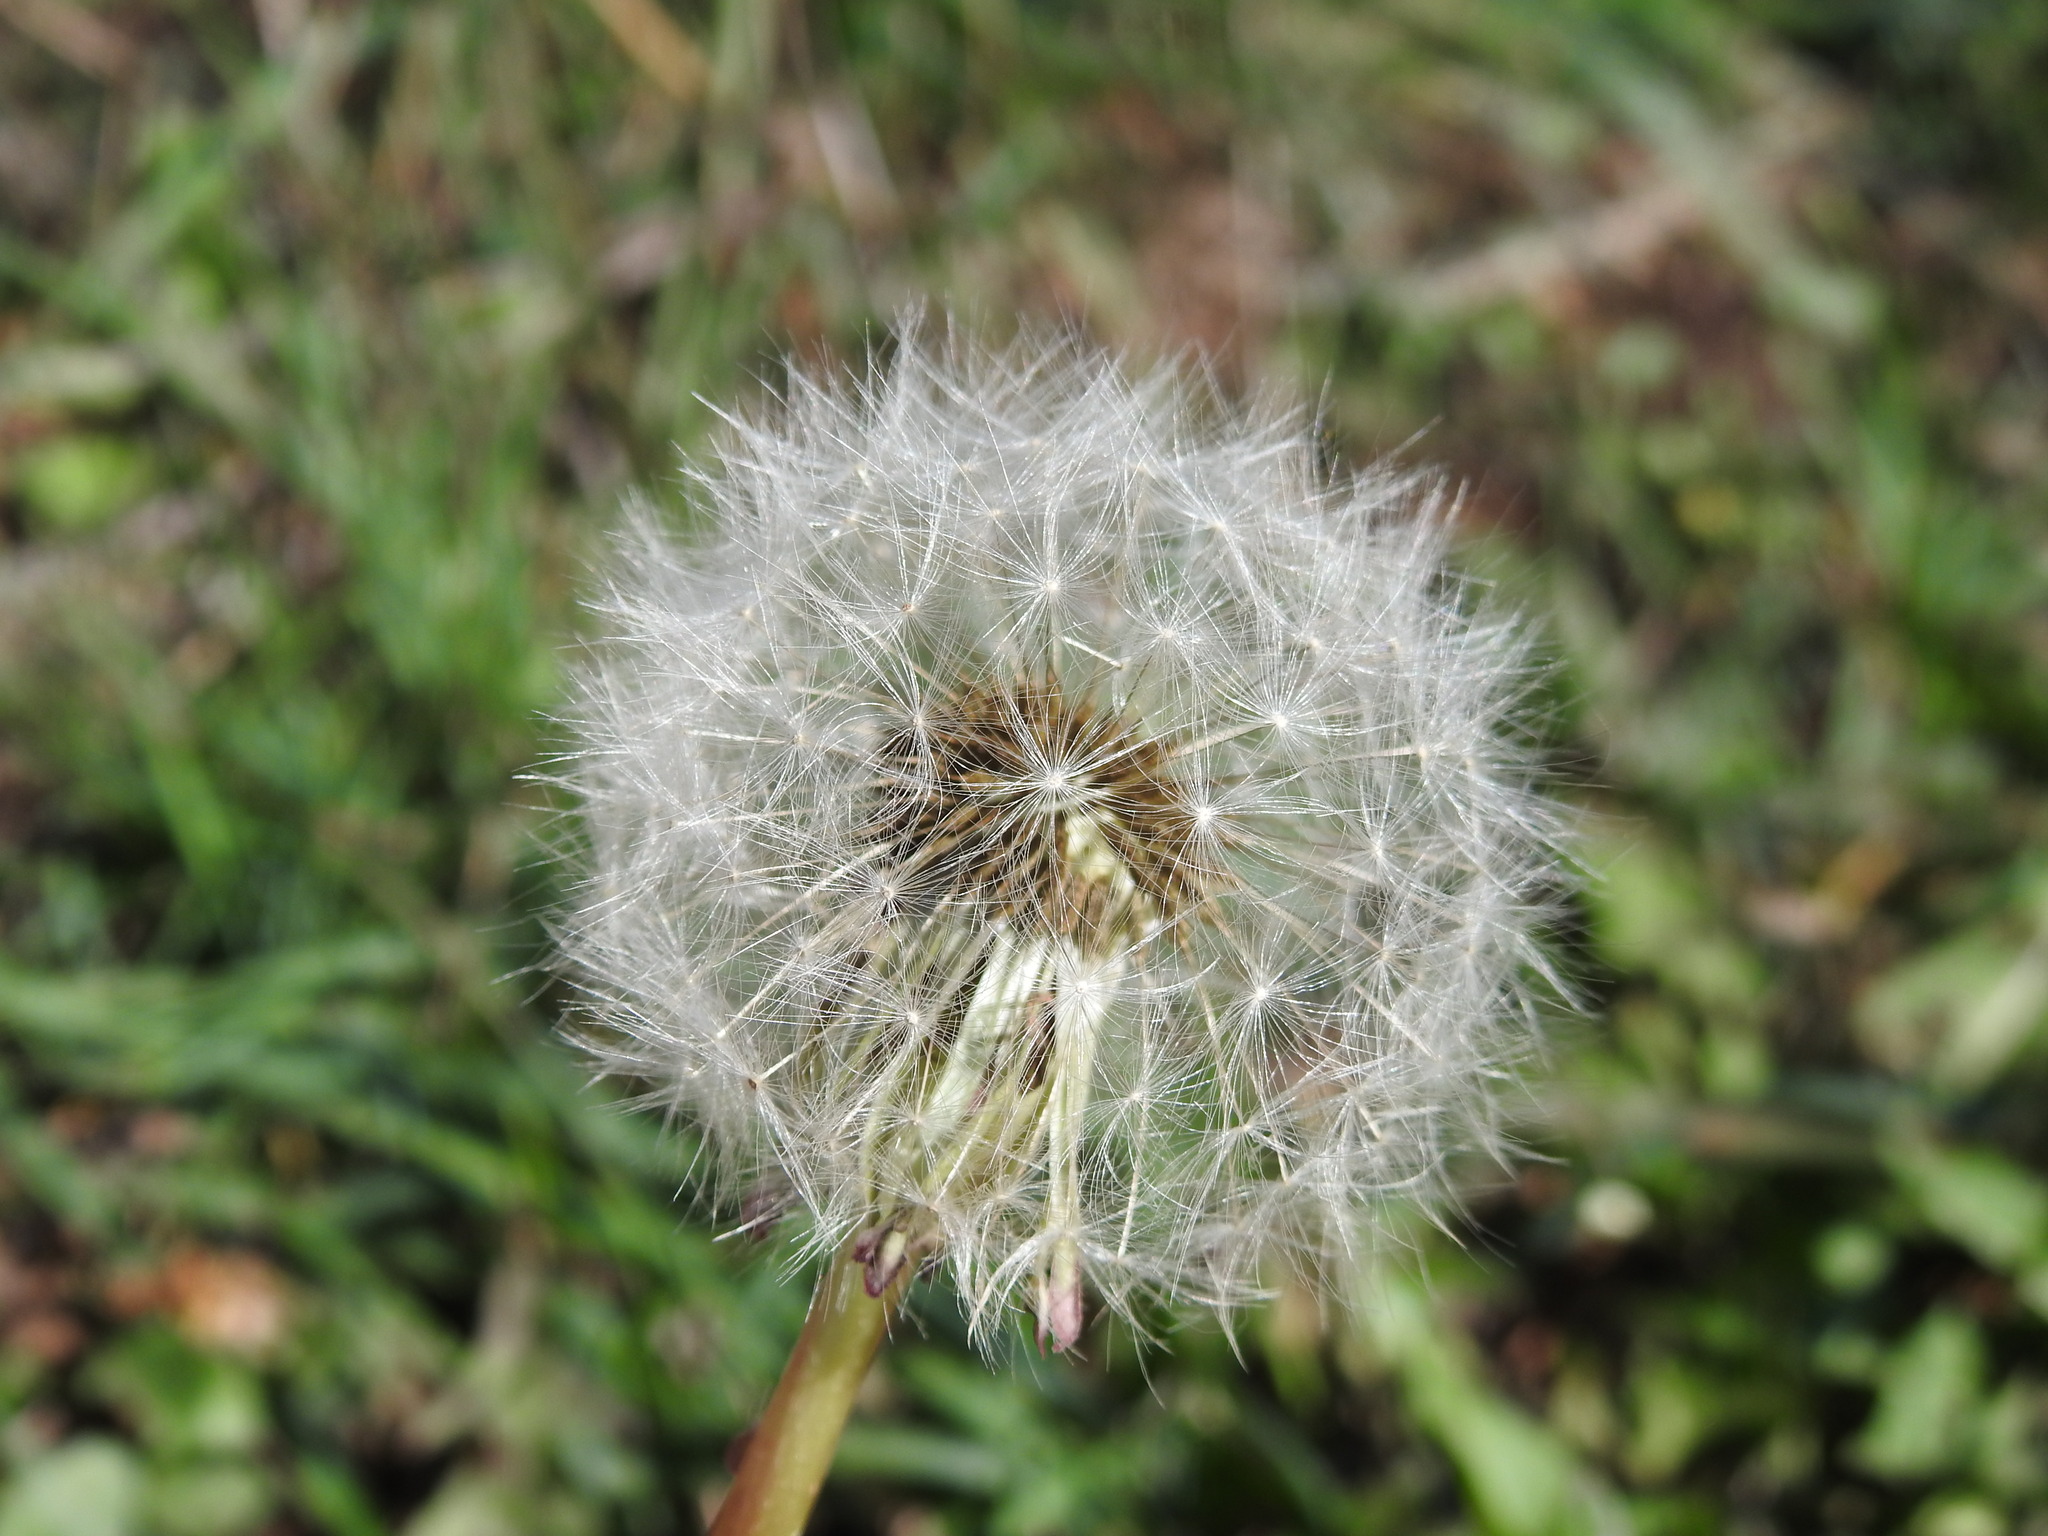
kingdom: Plantae
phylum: Tracheophyta
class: Magnoliopsida
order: Asterales
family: Asteraceae
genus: Taraxacum
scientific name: Taraxacum officinale
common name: Common dandelion
